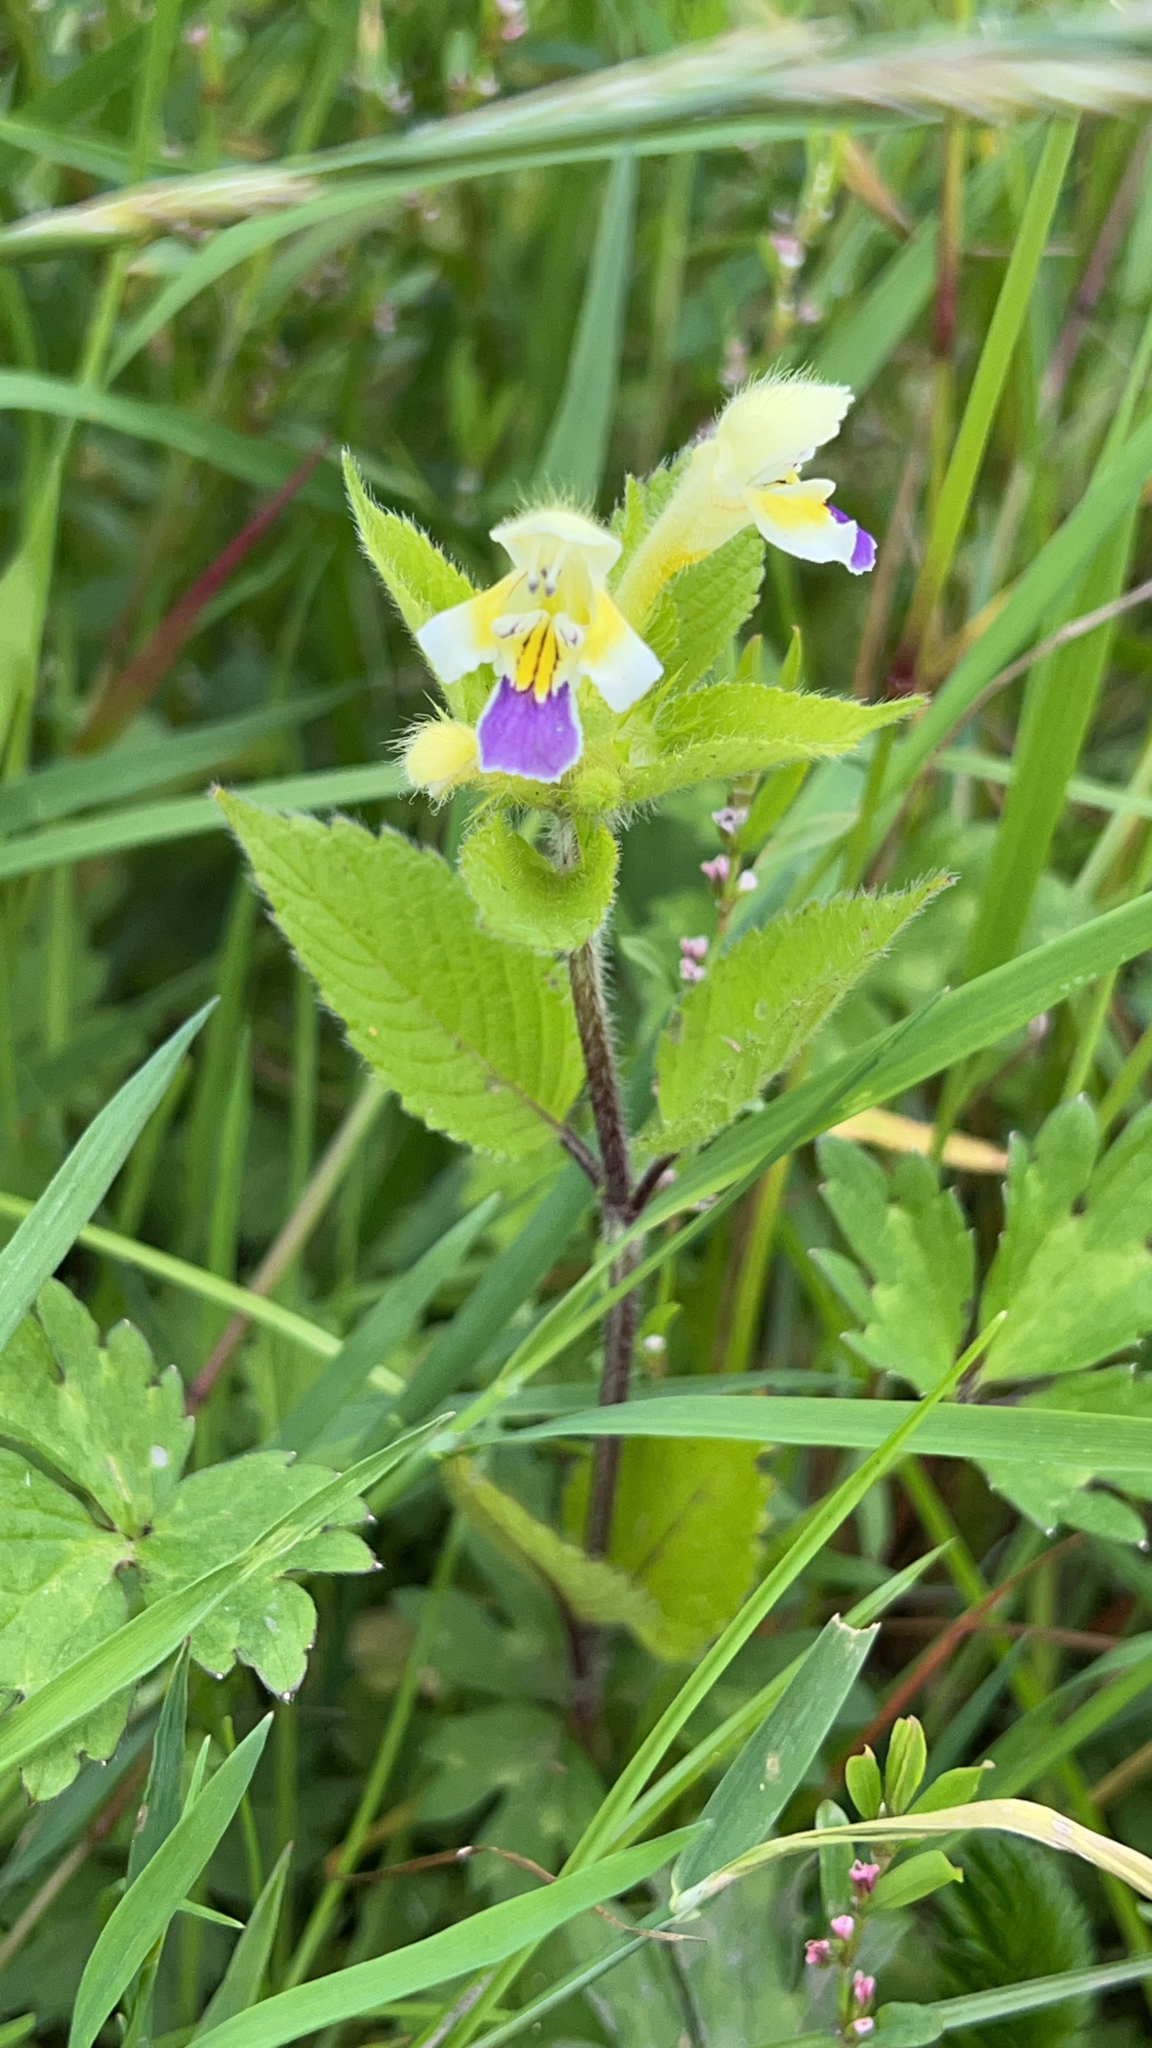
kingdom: Plantae
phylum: Tracheophyta
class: Magnoliopsida
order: Lamiales
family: Lamiaceae
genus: Galeopsis
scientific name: Galeopsis speciosa
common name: Large-flowered hemp-nettle
